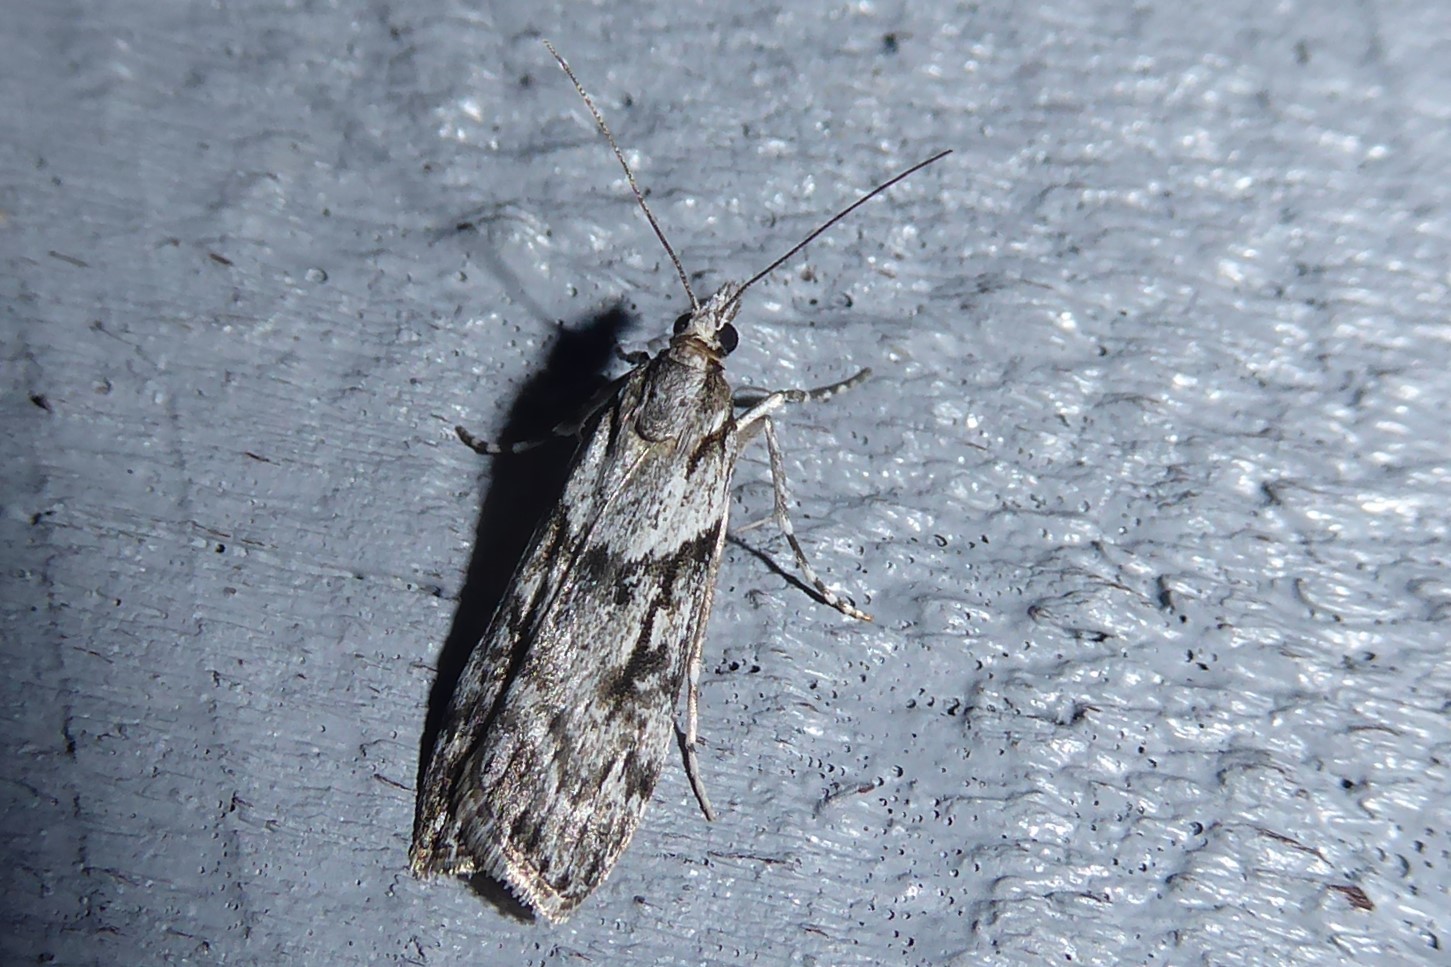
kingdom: Animalia
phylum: Arthropoda
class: Insecta
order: Lepidoptera
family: Crambidae
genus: Scoparia
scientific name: Scoparia halopis
